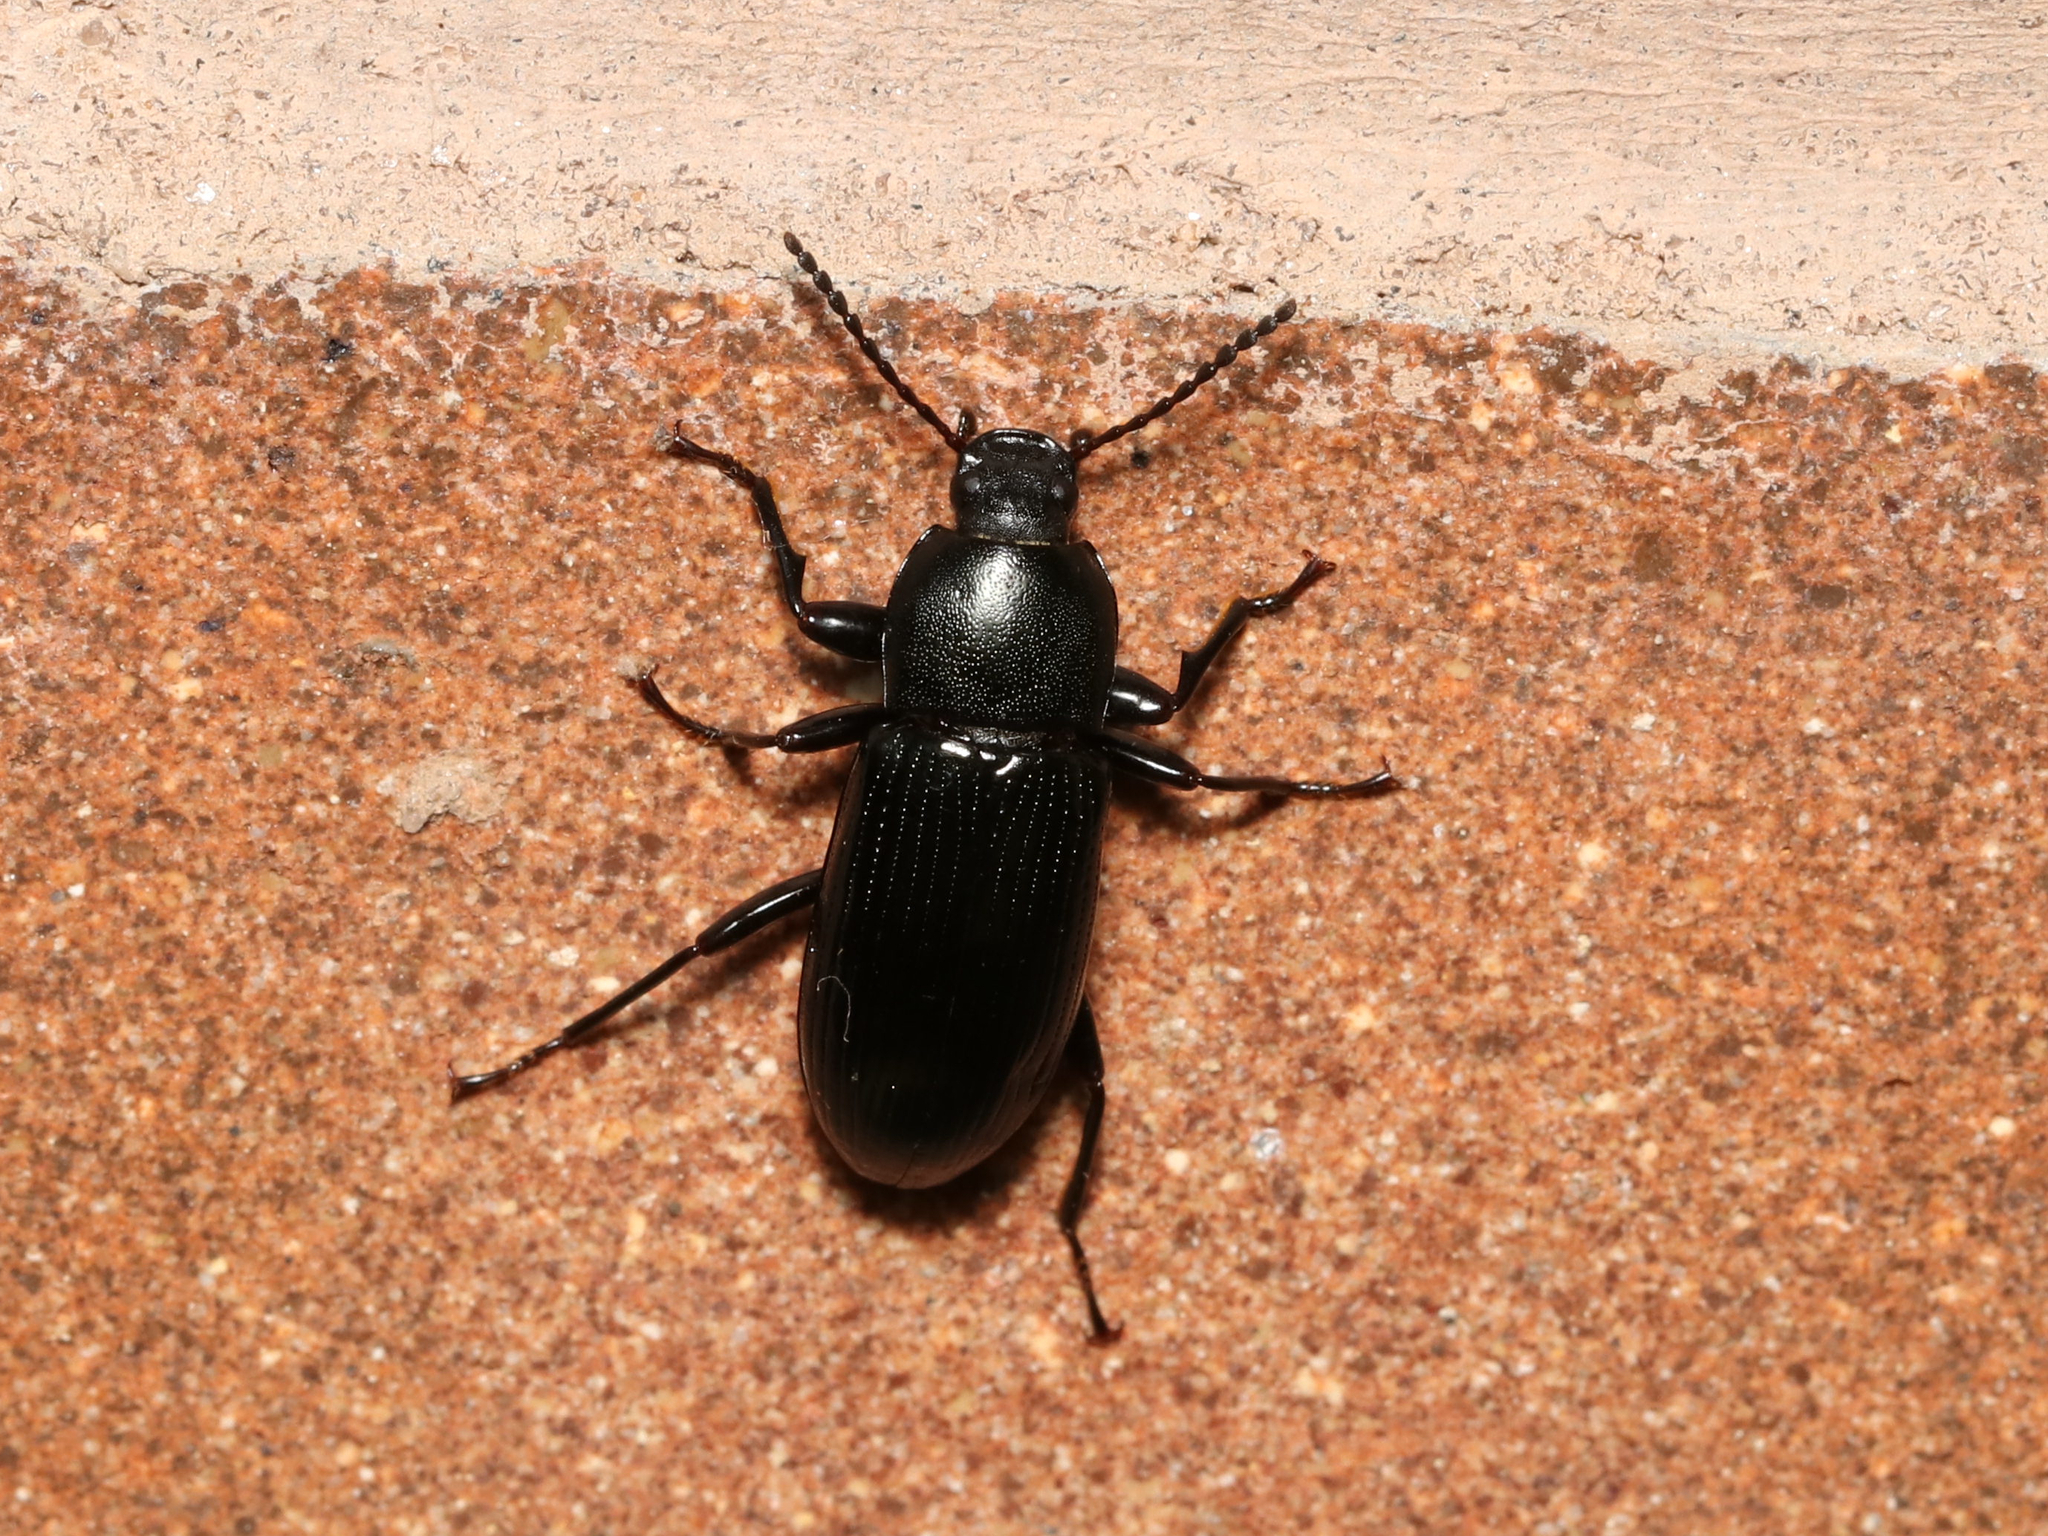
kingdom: Animalia
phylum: Arthropoda
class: Insecta
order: Coleoptera
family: Tenebrionidae
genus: Centronopus
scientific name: Centronopus calcaratus
